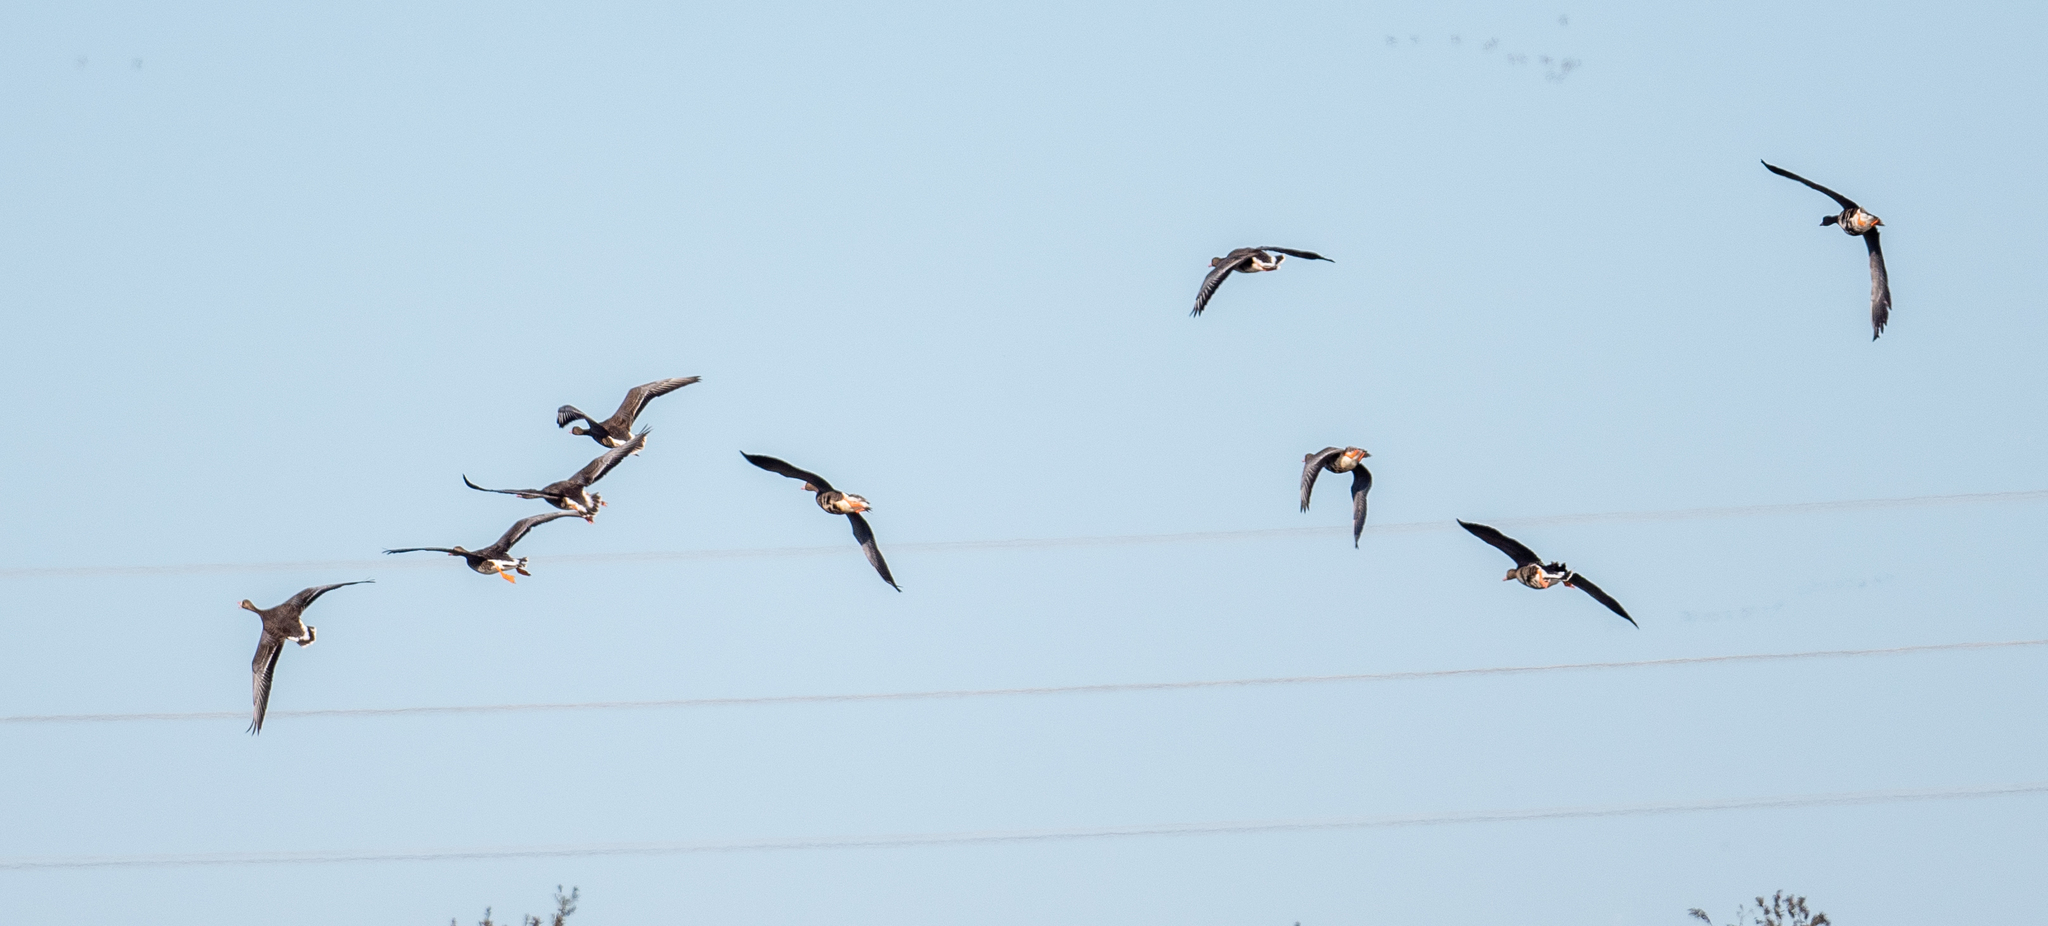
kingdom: Animalia
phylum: Chordata
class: Aves
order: Anseriformes
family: Anatidae
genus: Anser
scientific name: Anser albifrons
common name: Greater white-fronted goose
